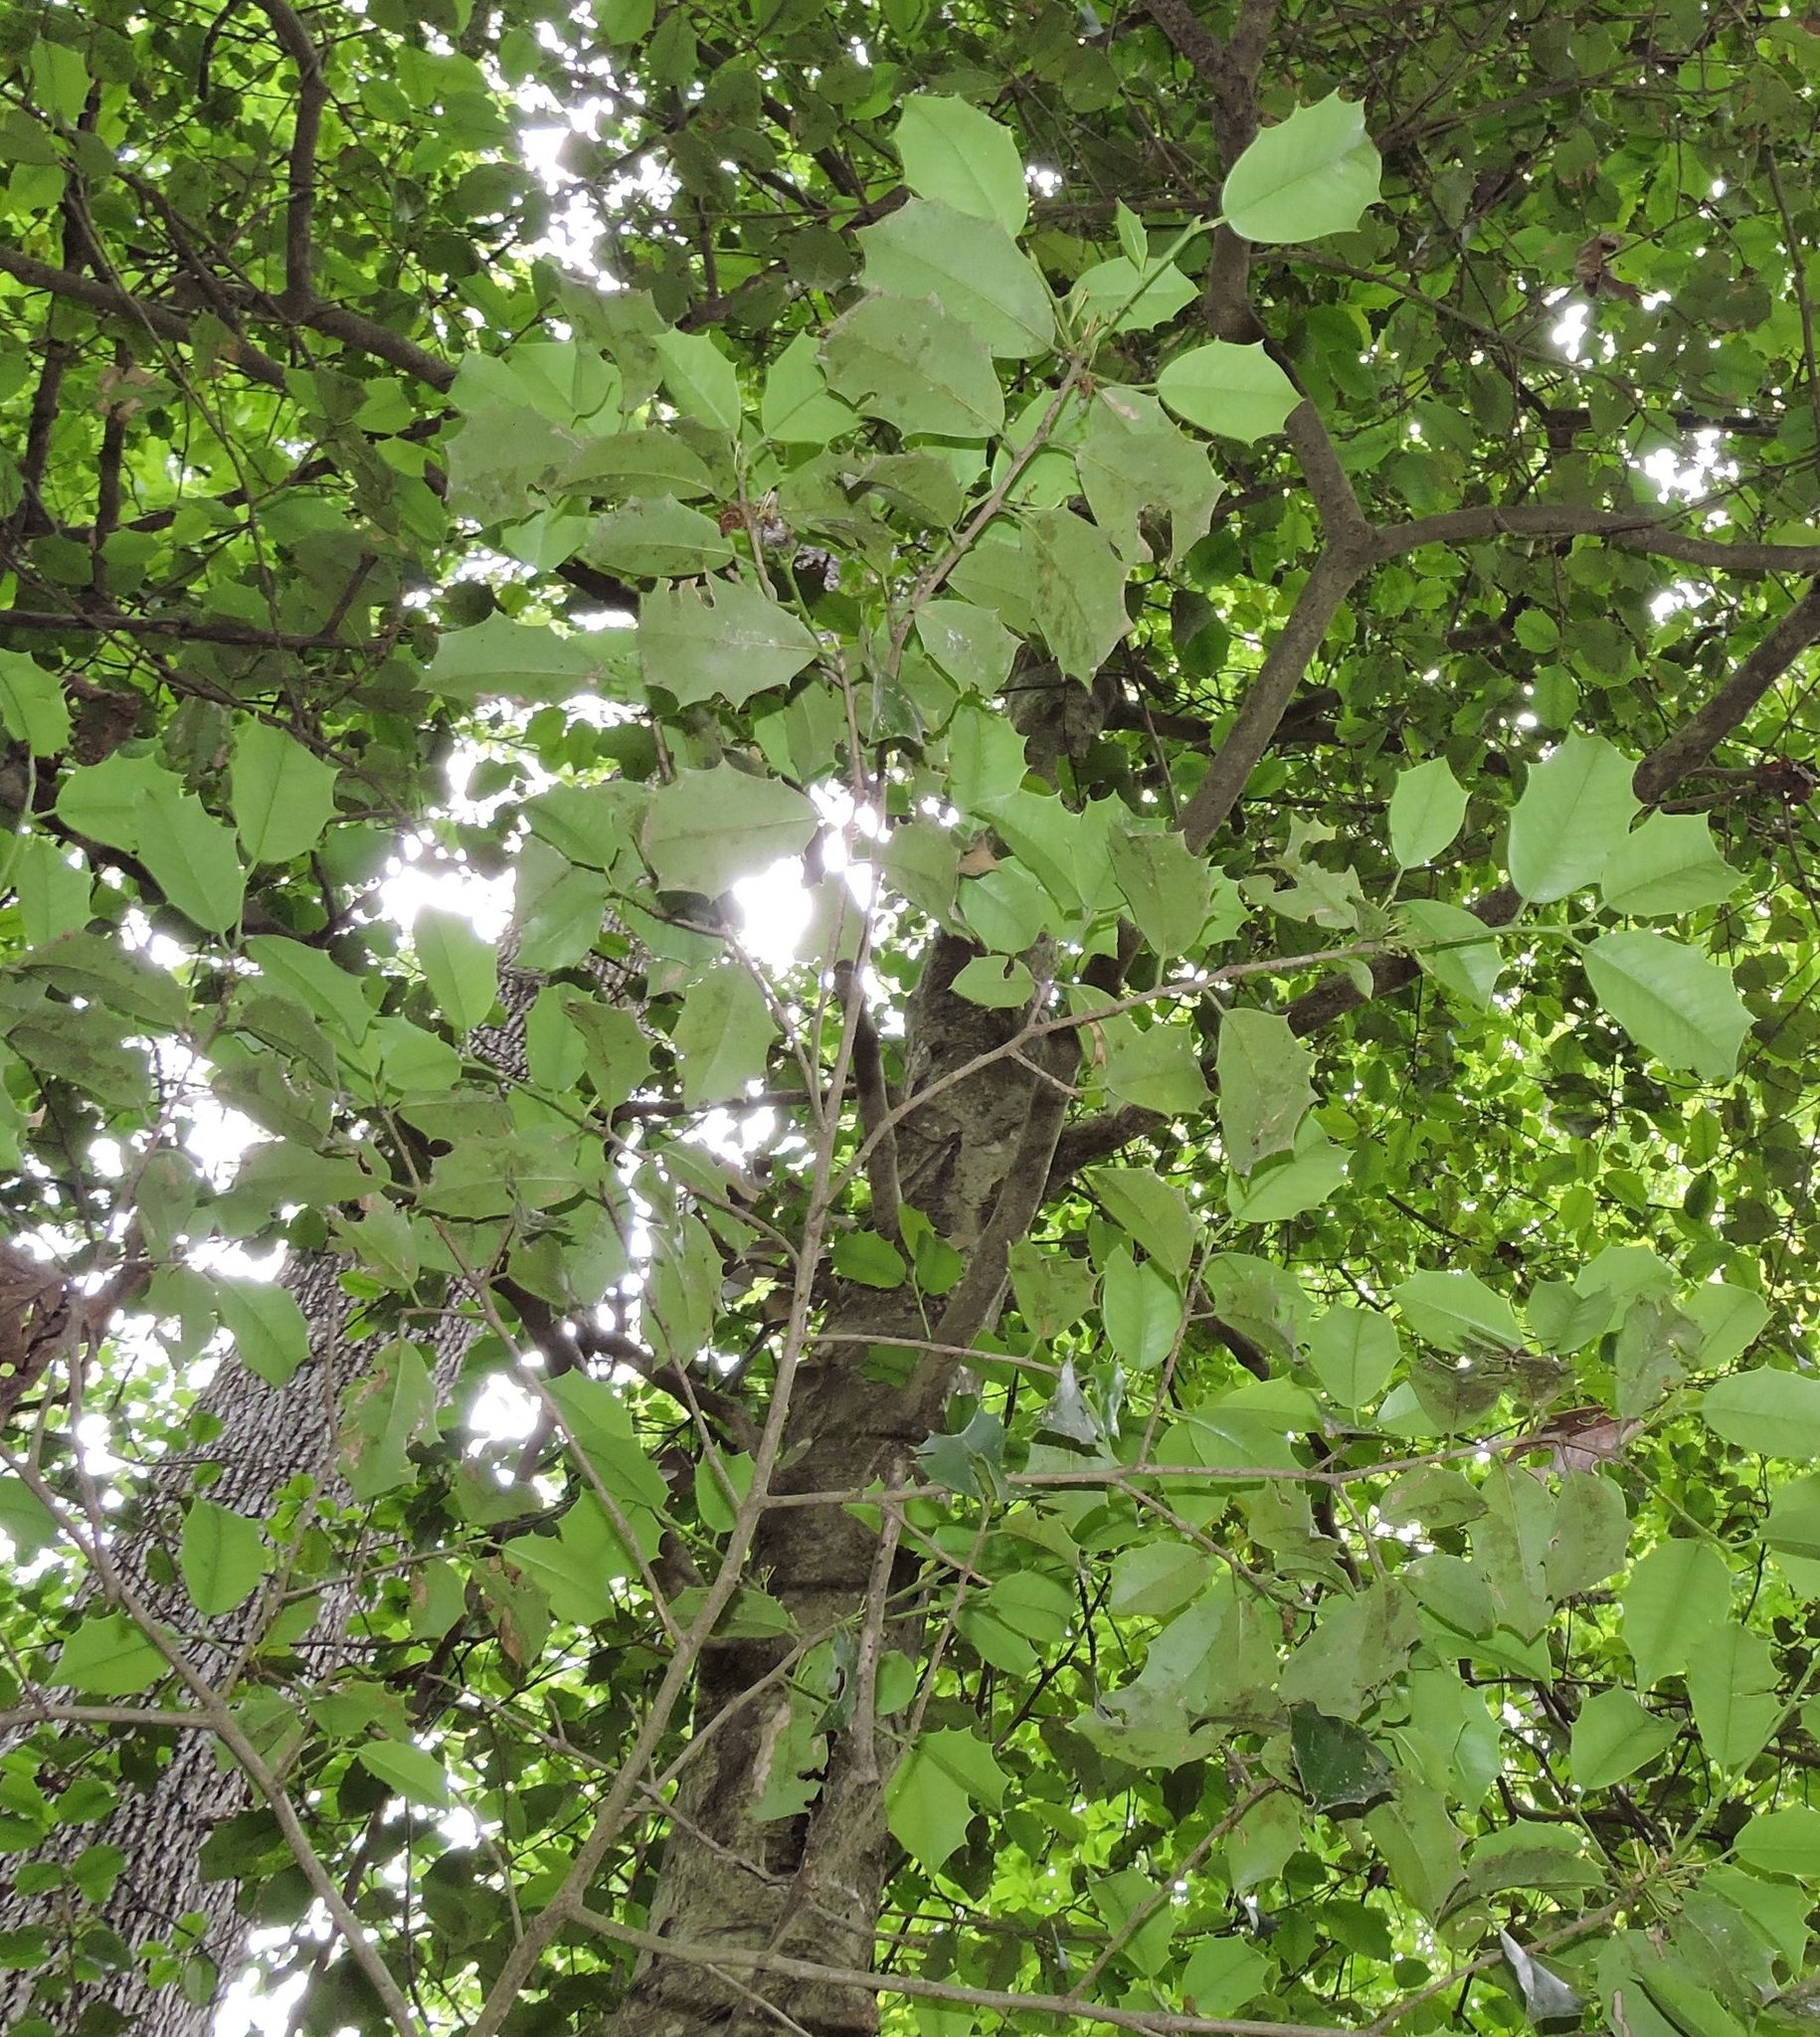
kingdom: Plantae
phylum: Tracheophyta
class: Magnoliopsida
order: Aquifoliales
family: Aquifoliaceae
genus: Ilex
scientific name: Ilex opaca
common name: American holly
